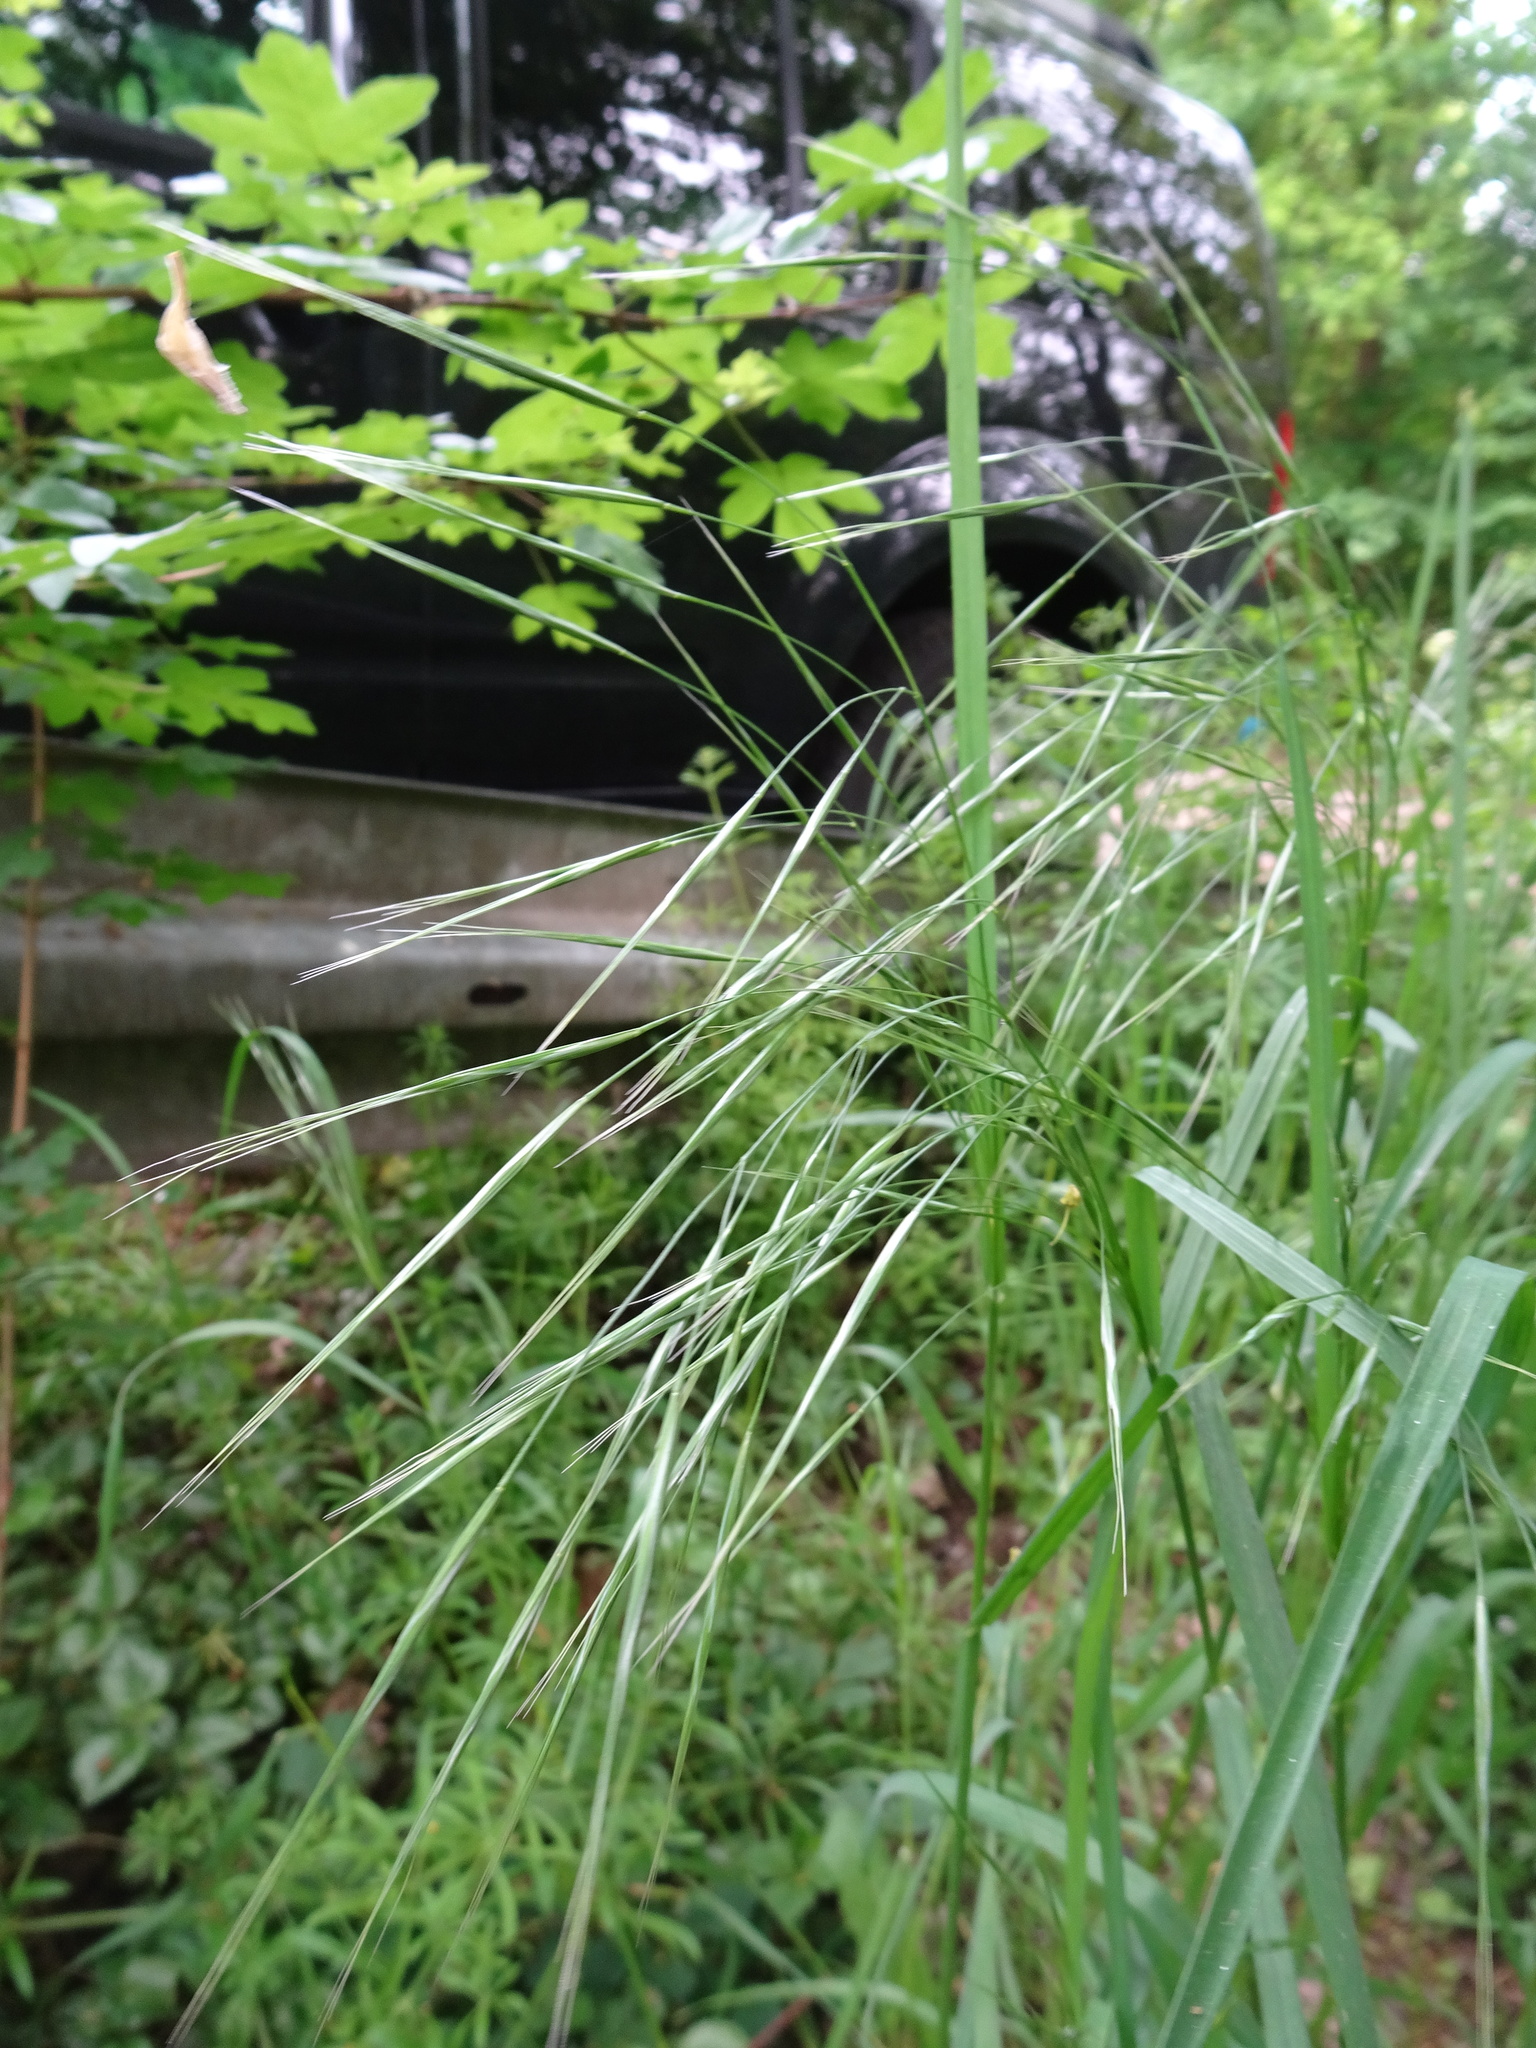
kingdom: Plantae
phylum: Tracheophyta
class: Liliopsida
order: Poales
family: Poaceae
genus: Bromus
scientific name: Bromus sterilis
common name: Poverty brome
